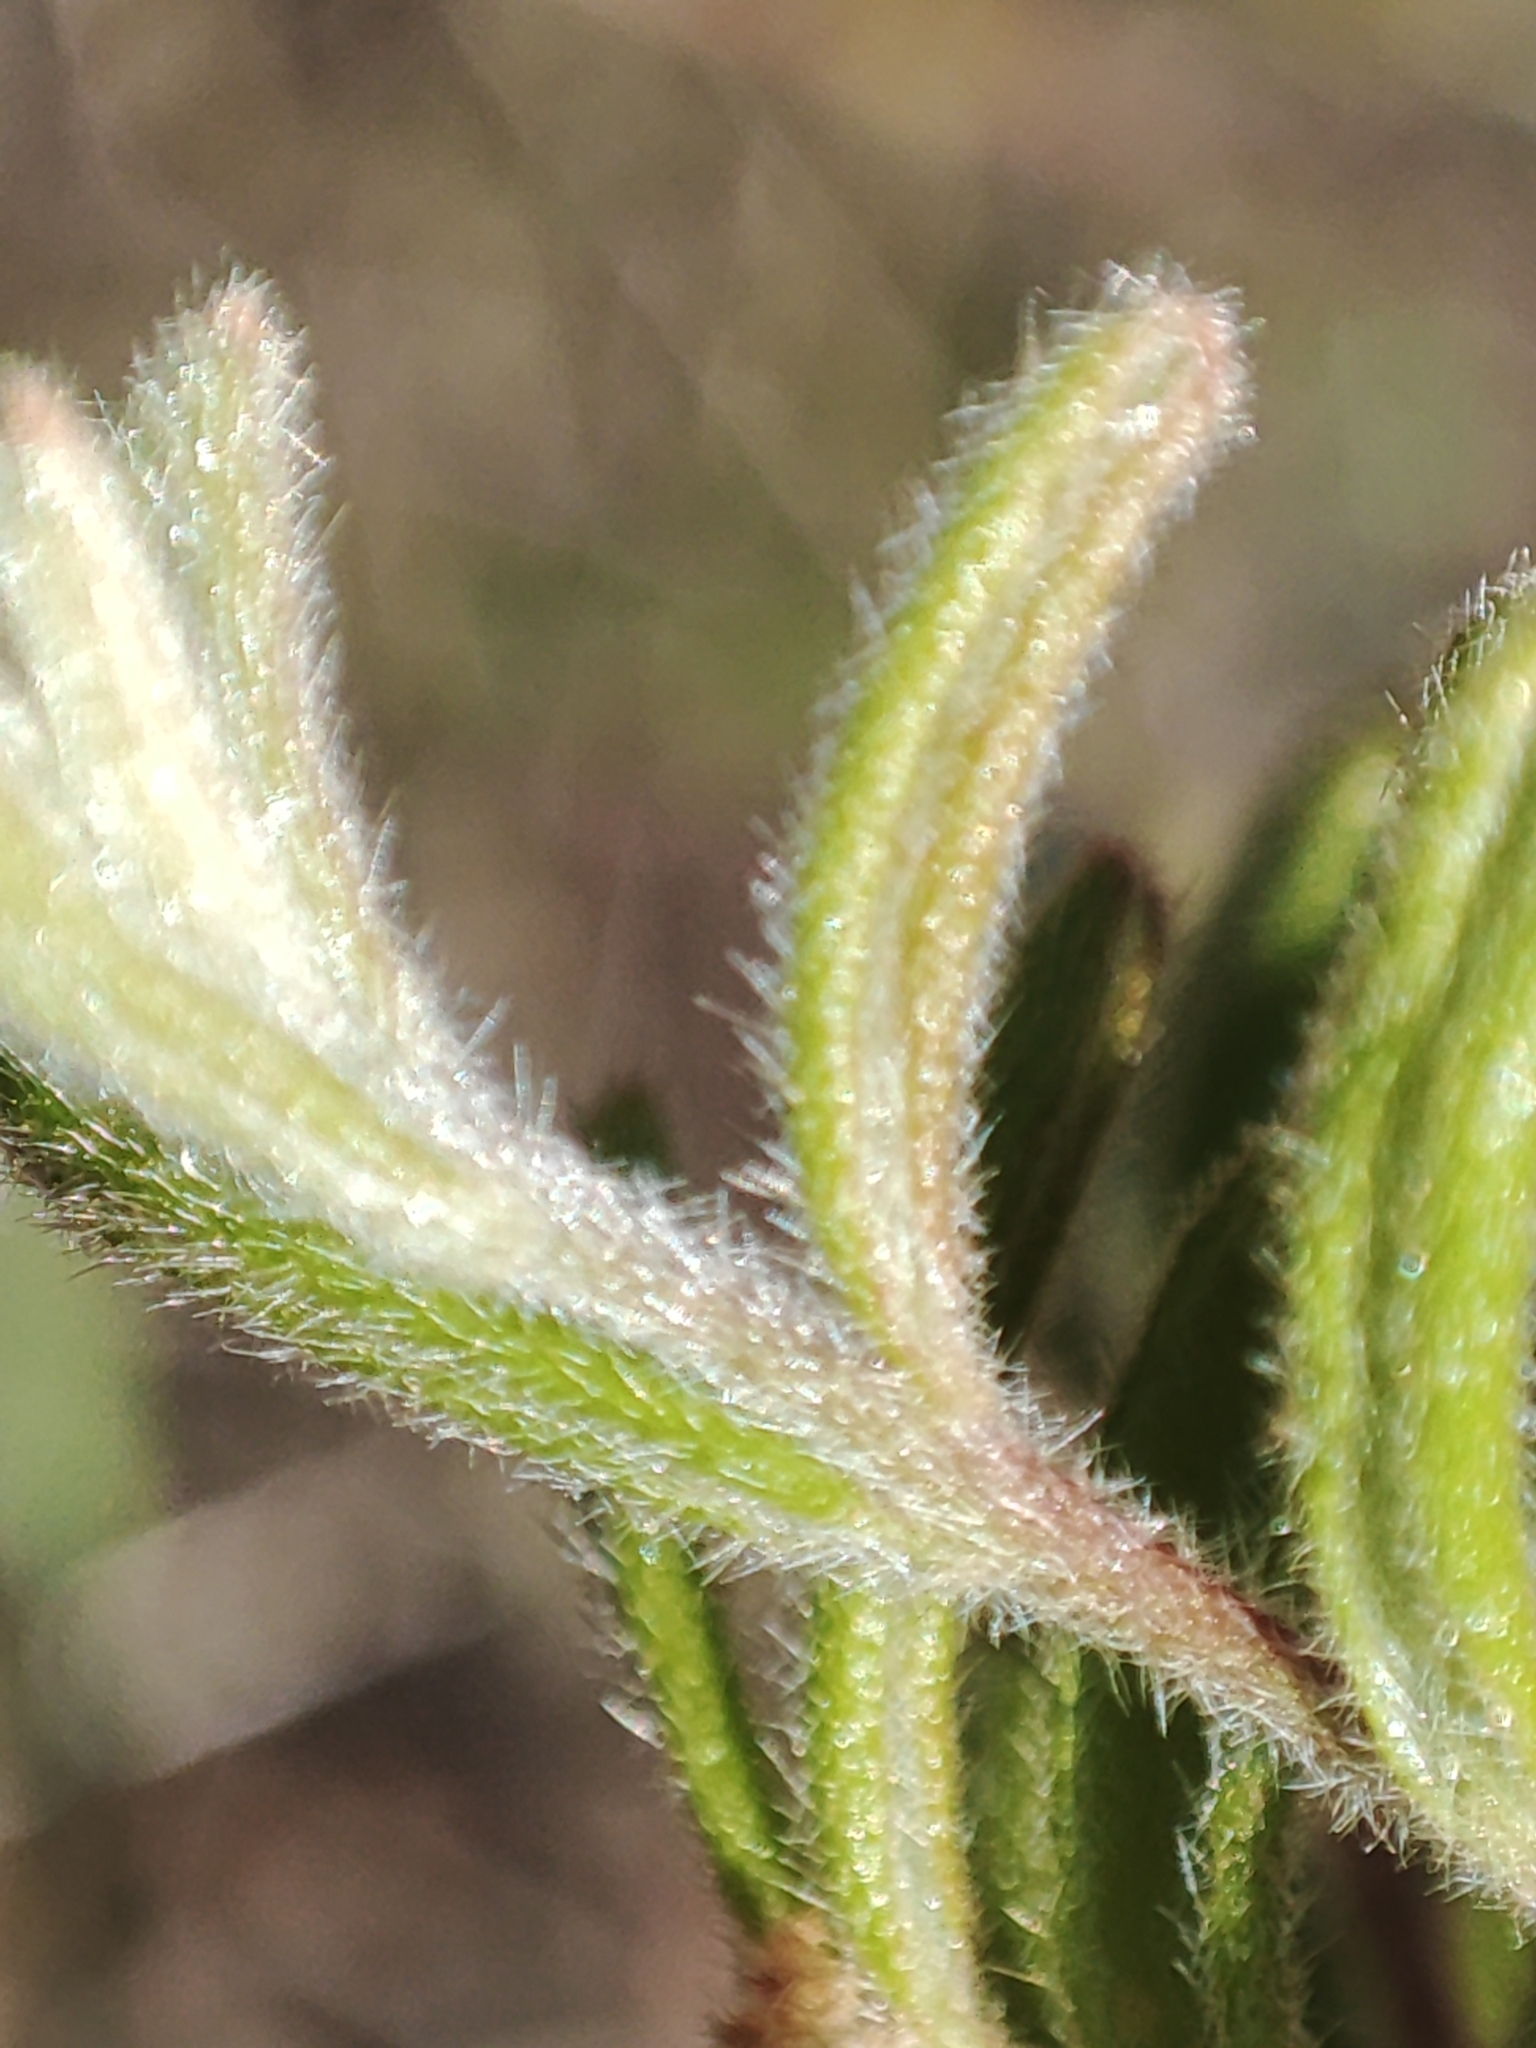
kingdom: Plantae
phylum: Tracheophyta
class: Magnoliopsida
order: Proteales
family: Proteaceae
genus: Grevillea
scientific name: Grevillea alpina
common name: Catclaws grevillea
